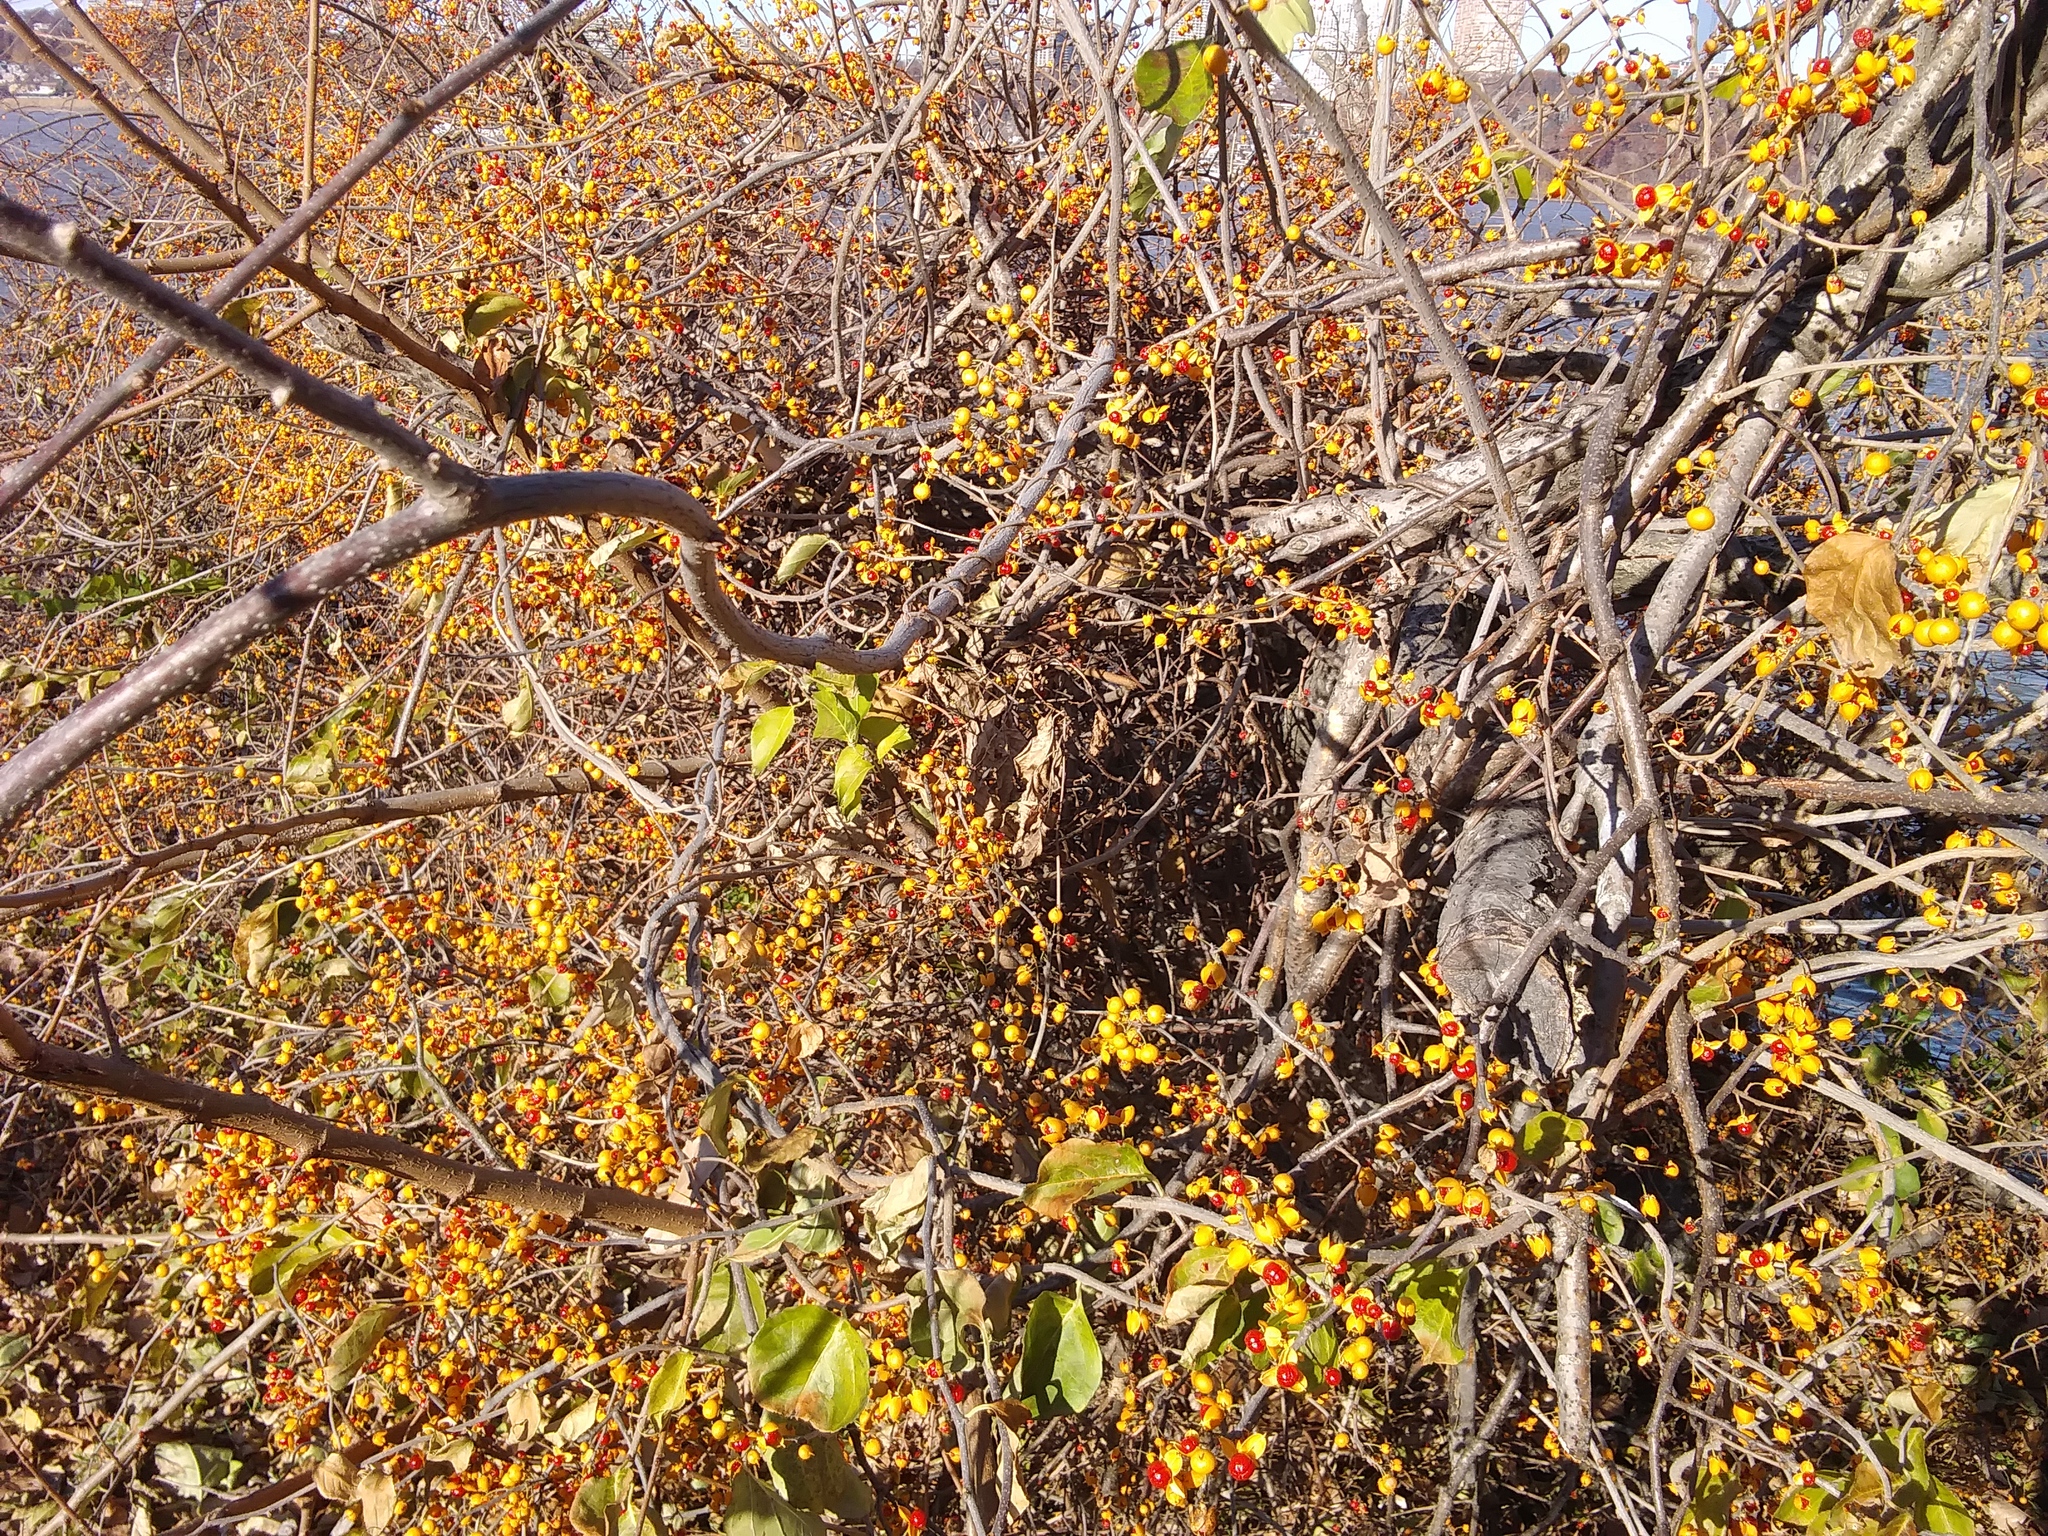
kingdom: Plantae
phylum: Tracheophyta
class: Magnoliopsida
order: Celastrales
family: Celastraceae
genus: Celastrus
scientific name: Celastrus orbiculatus
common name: Oriental bittersweet
